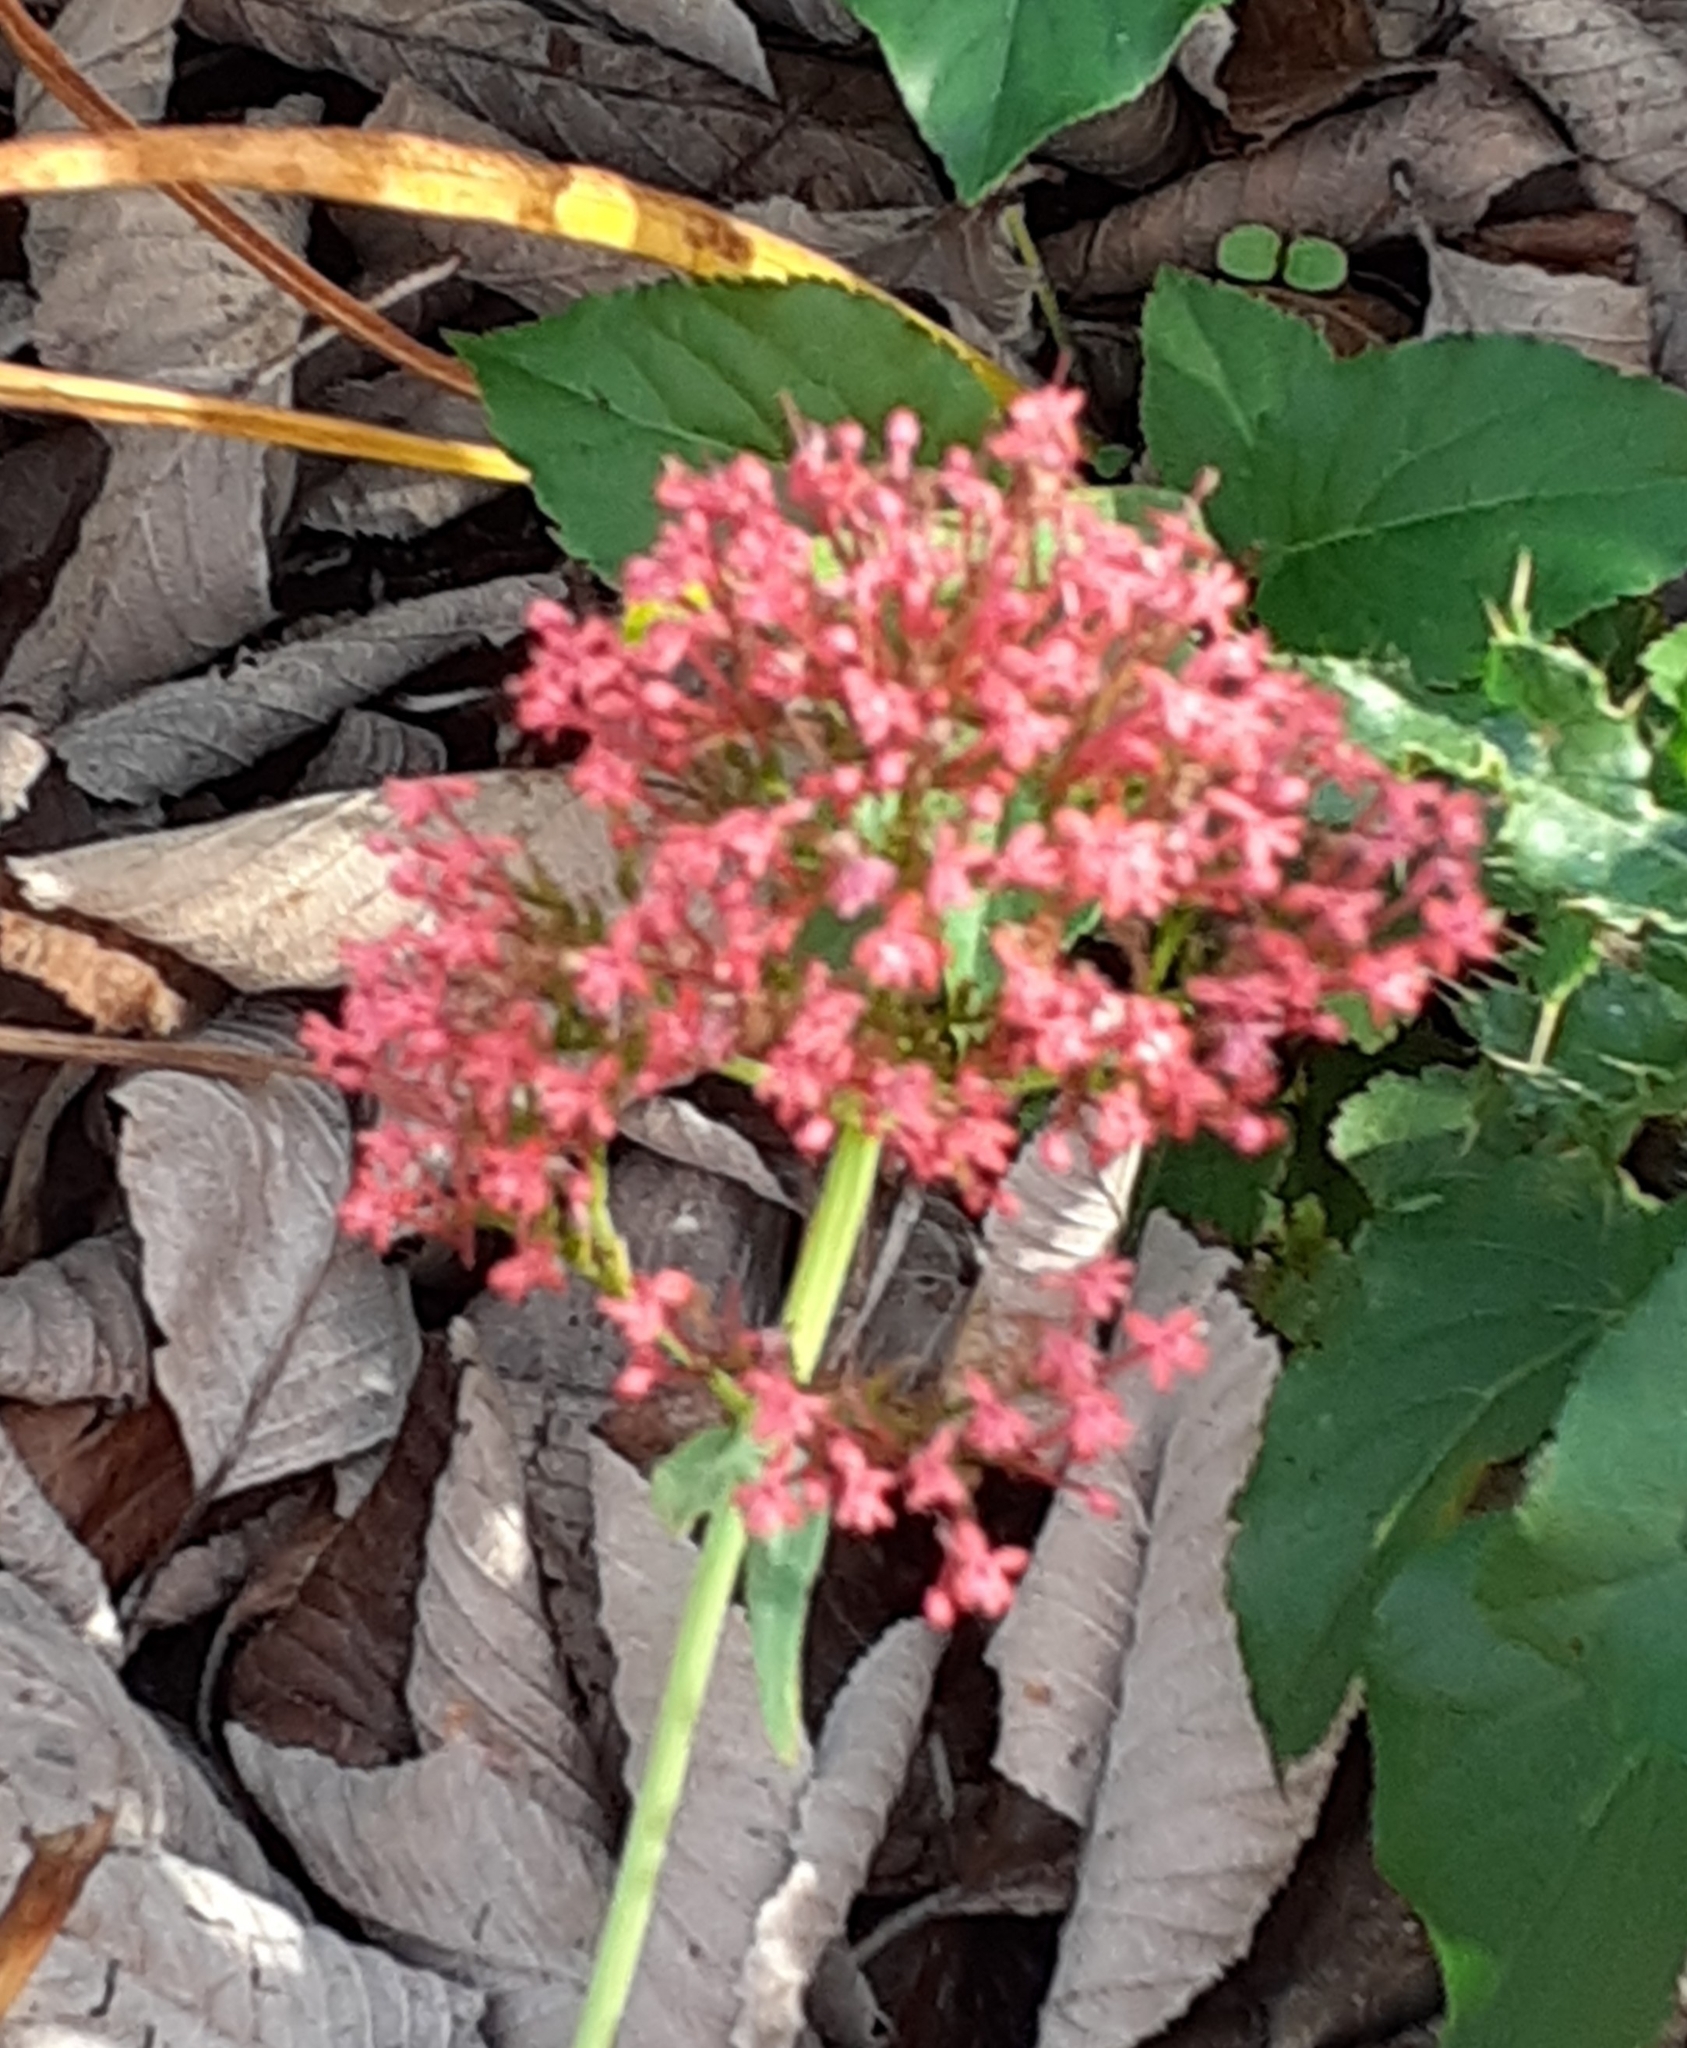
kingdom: Plantae
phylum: Tracheophyta
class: Magnoliopsida
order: Dipsacales
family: Caprifoliaceae
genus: Centranthus
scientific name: Centranthus ruber
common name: Red valerian
